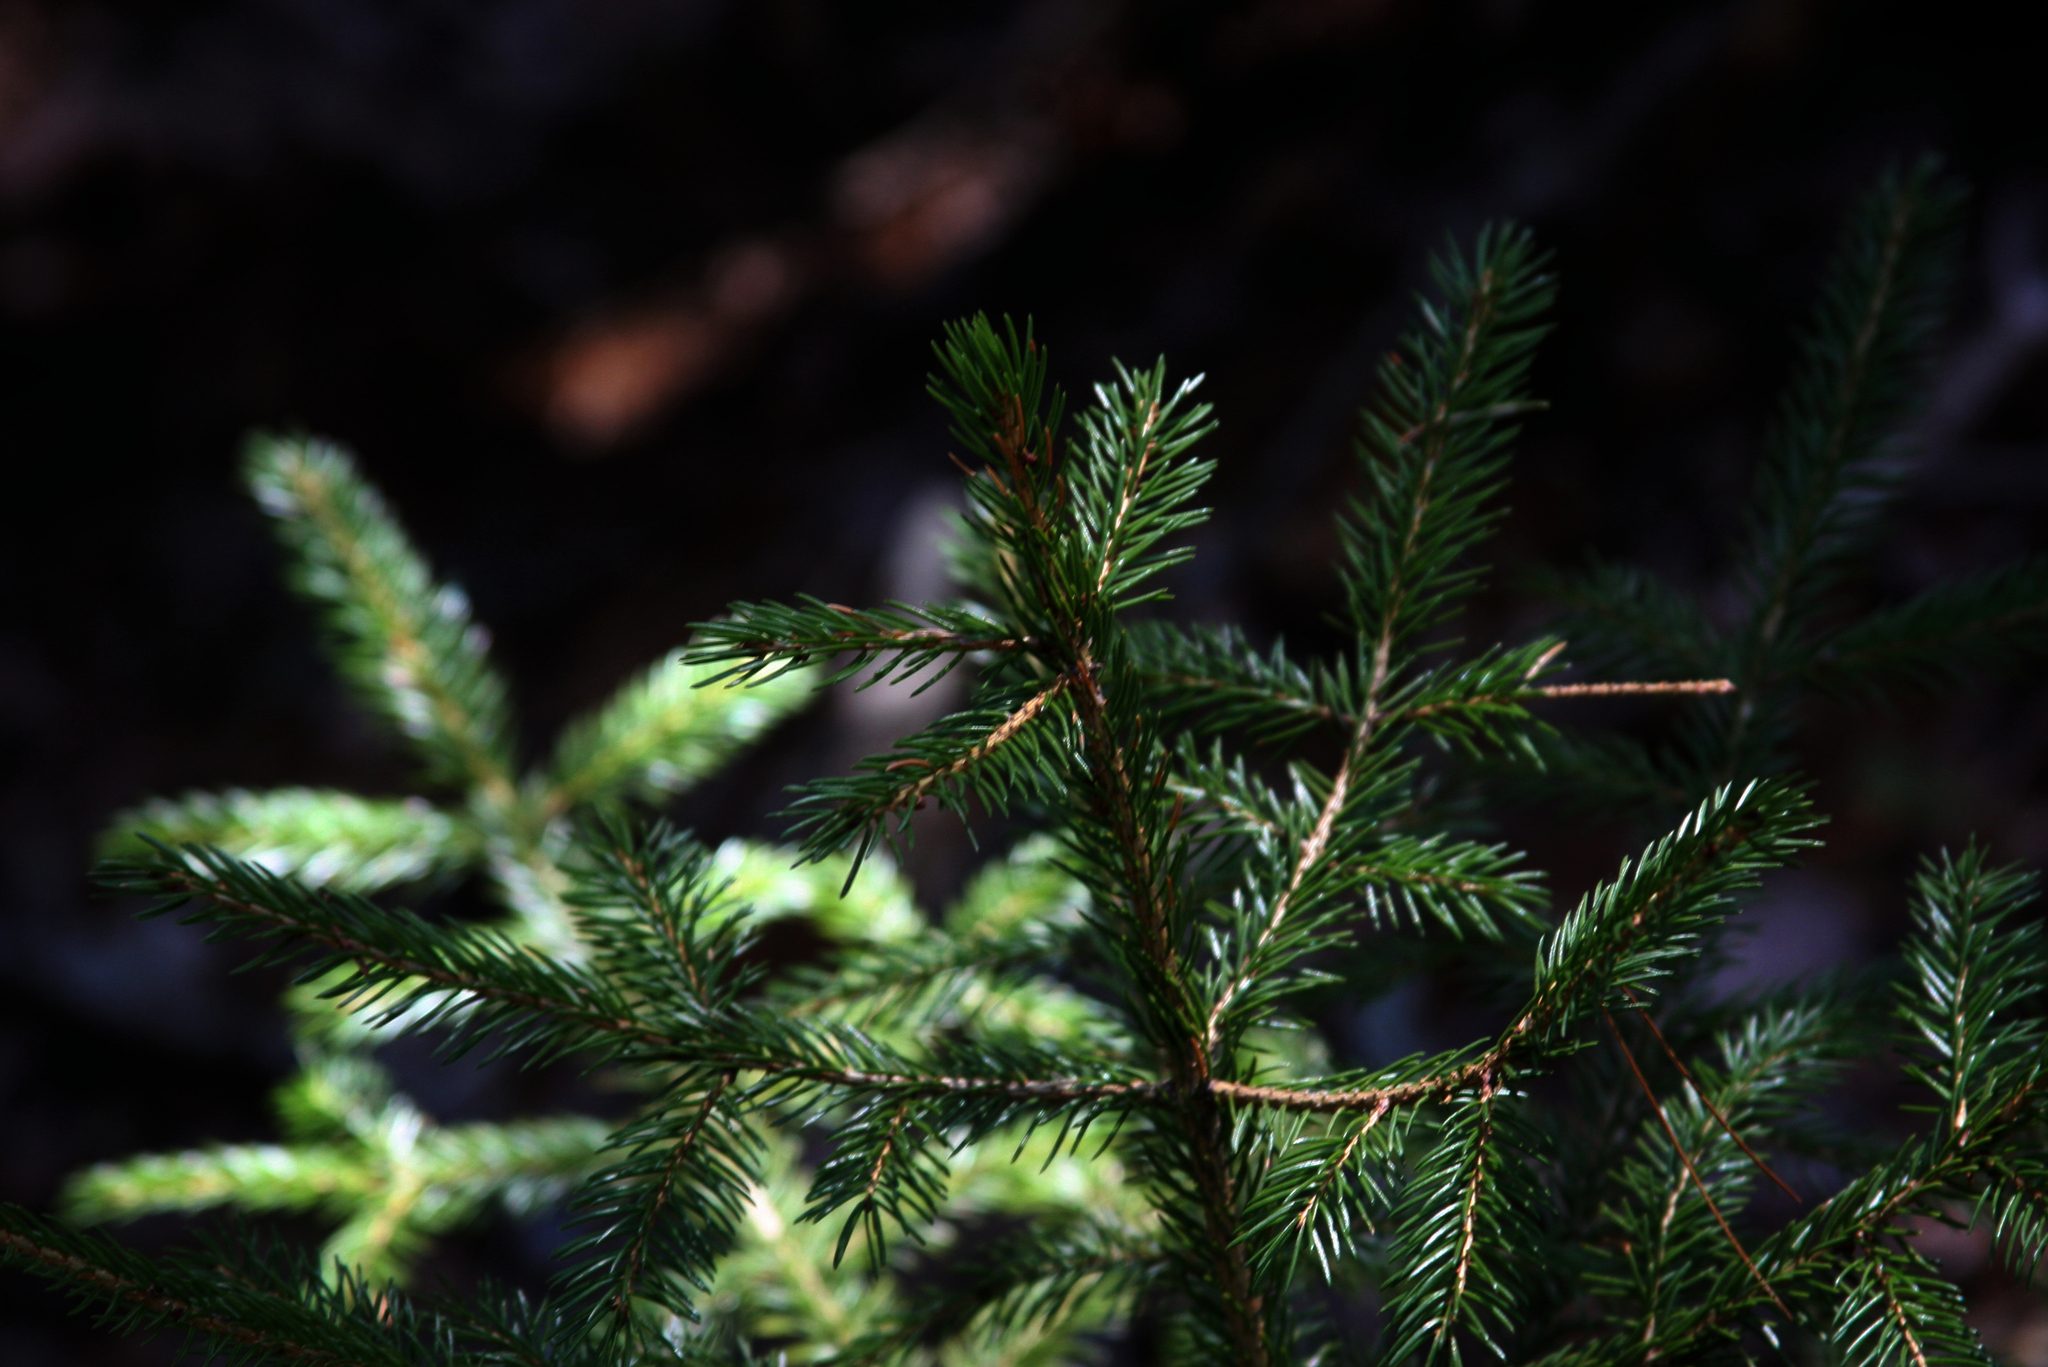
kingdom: Plantae
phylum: Tracheophyta
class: Pinopsida
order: Pinales
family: Pinaceae
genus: Picea
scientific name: Picea rubens
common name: Red spruce
